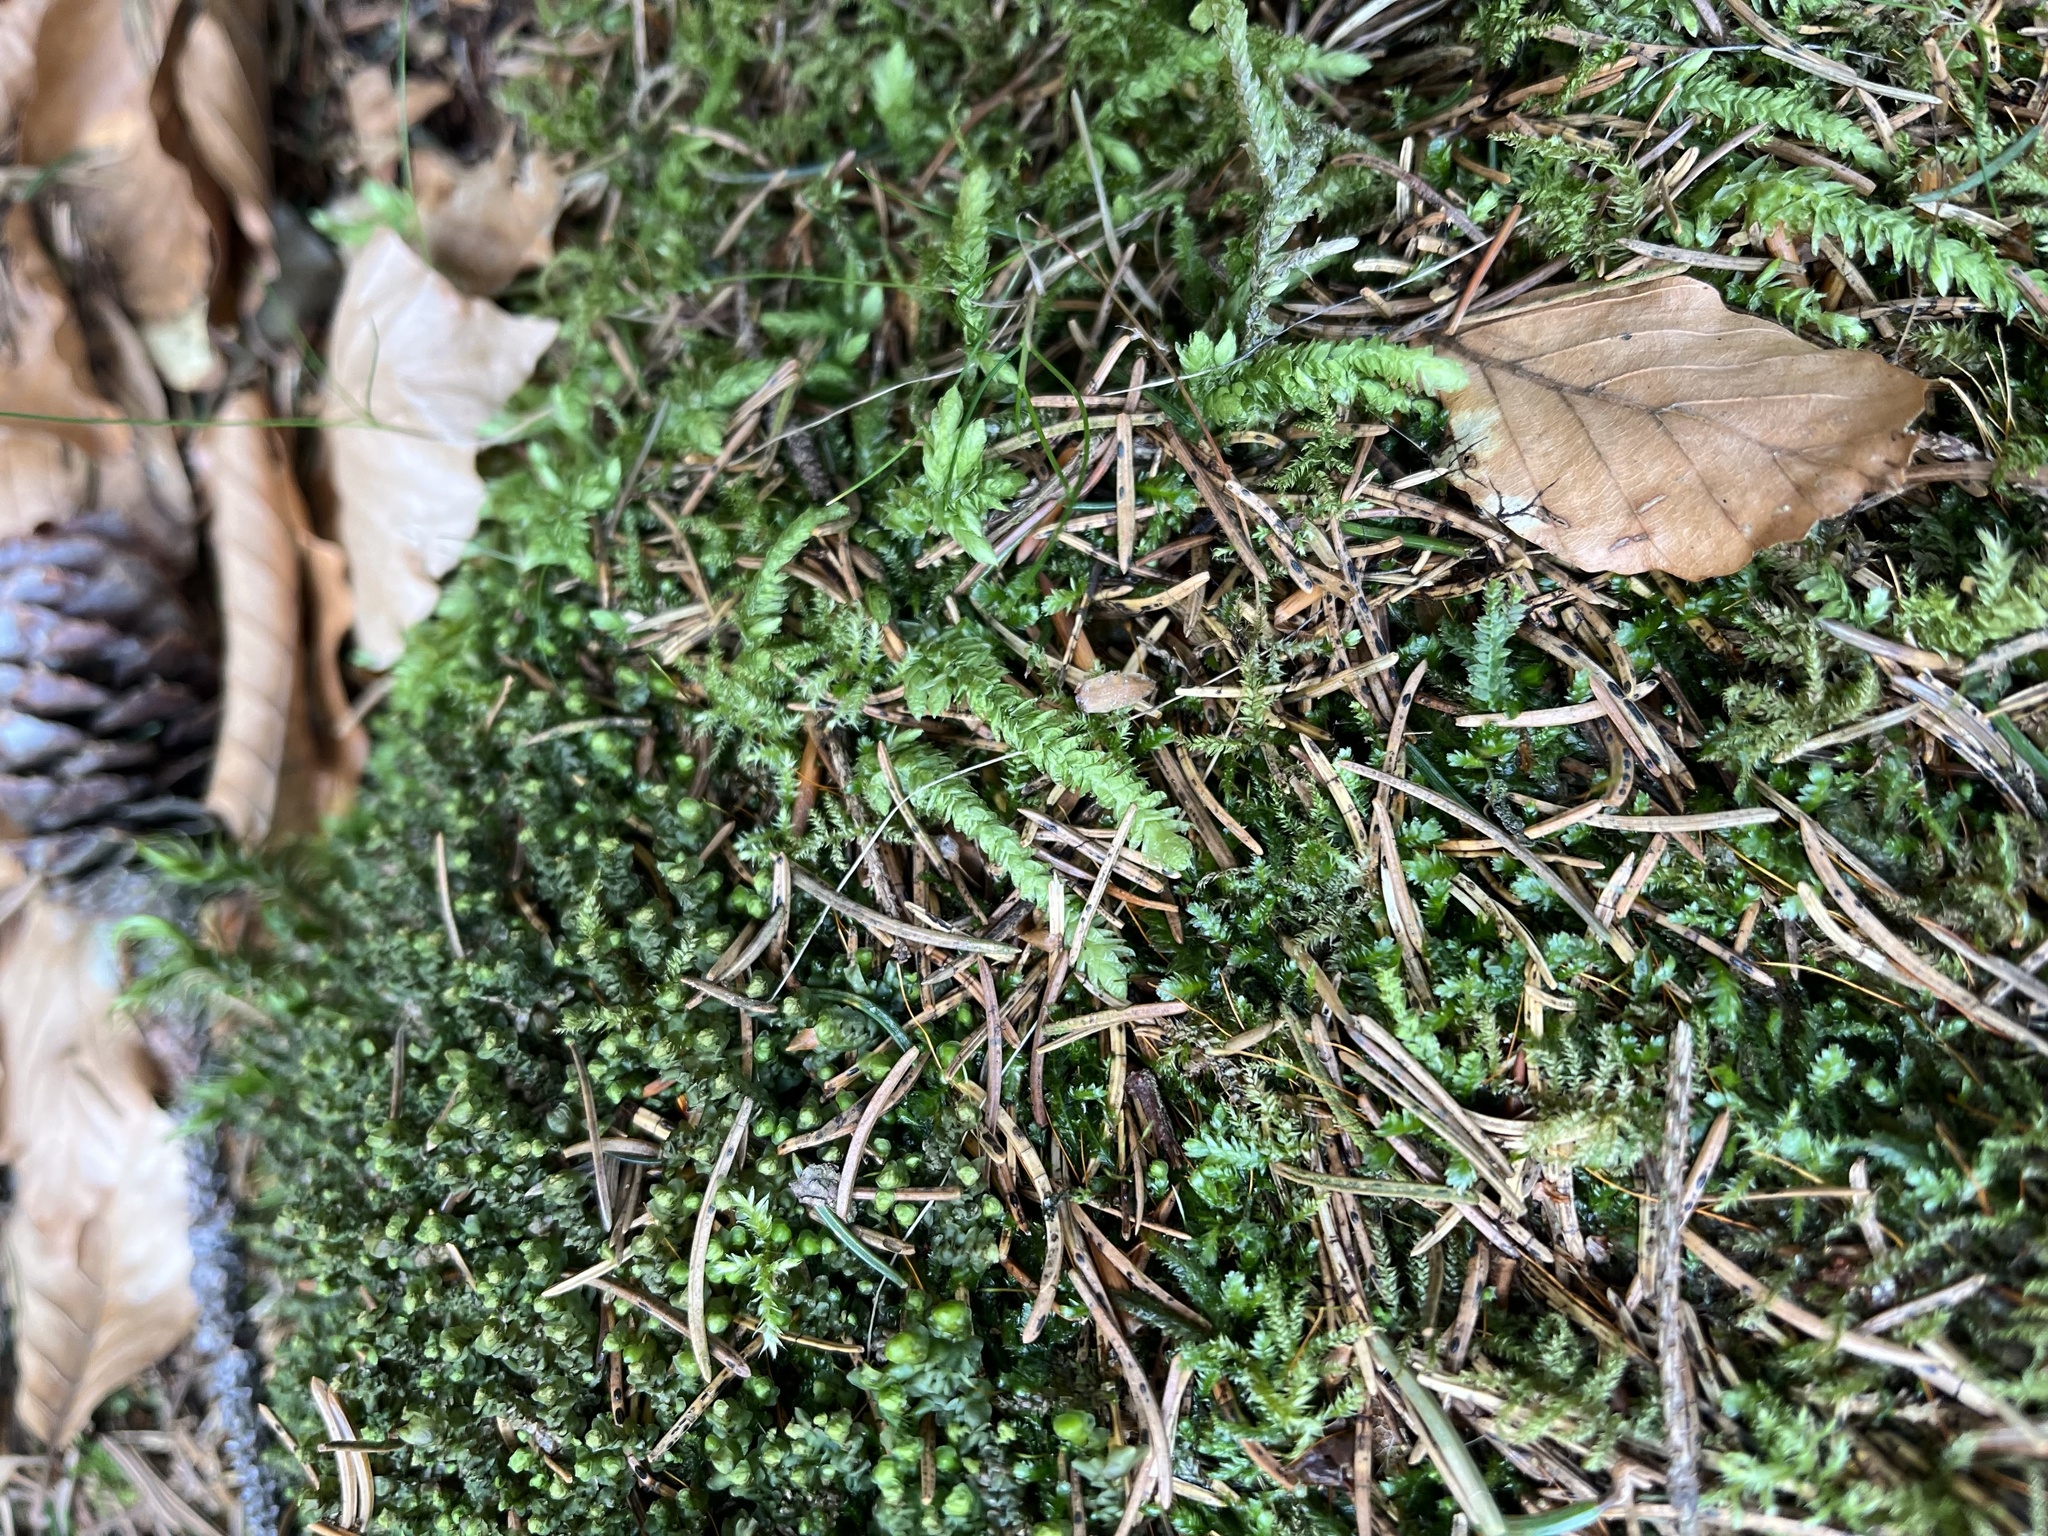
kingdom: Plantae
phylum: Bryophyta
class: Bryopsida
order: Hypnales
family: Plagiotheciaceae
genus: Plagiothecium
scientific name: Plagiothecium undulatum
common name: Waved silk-moss
